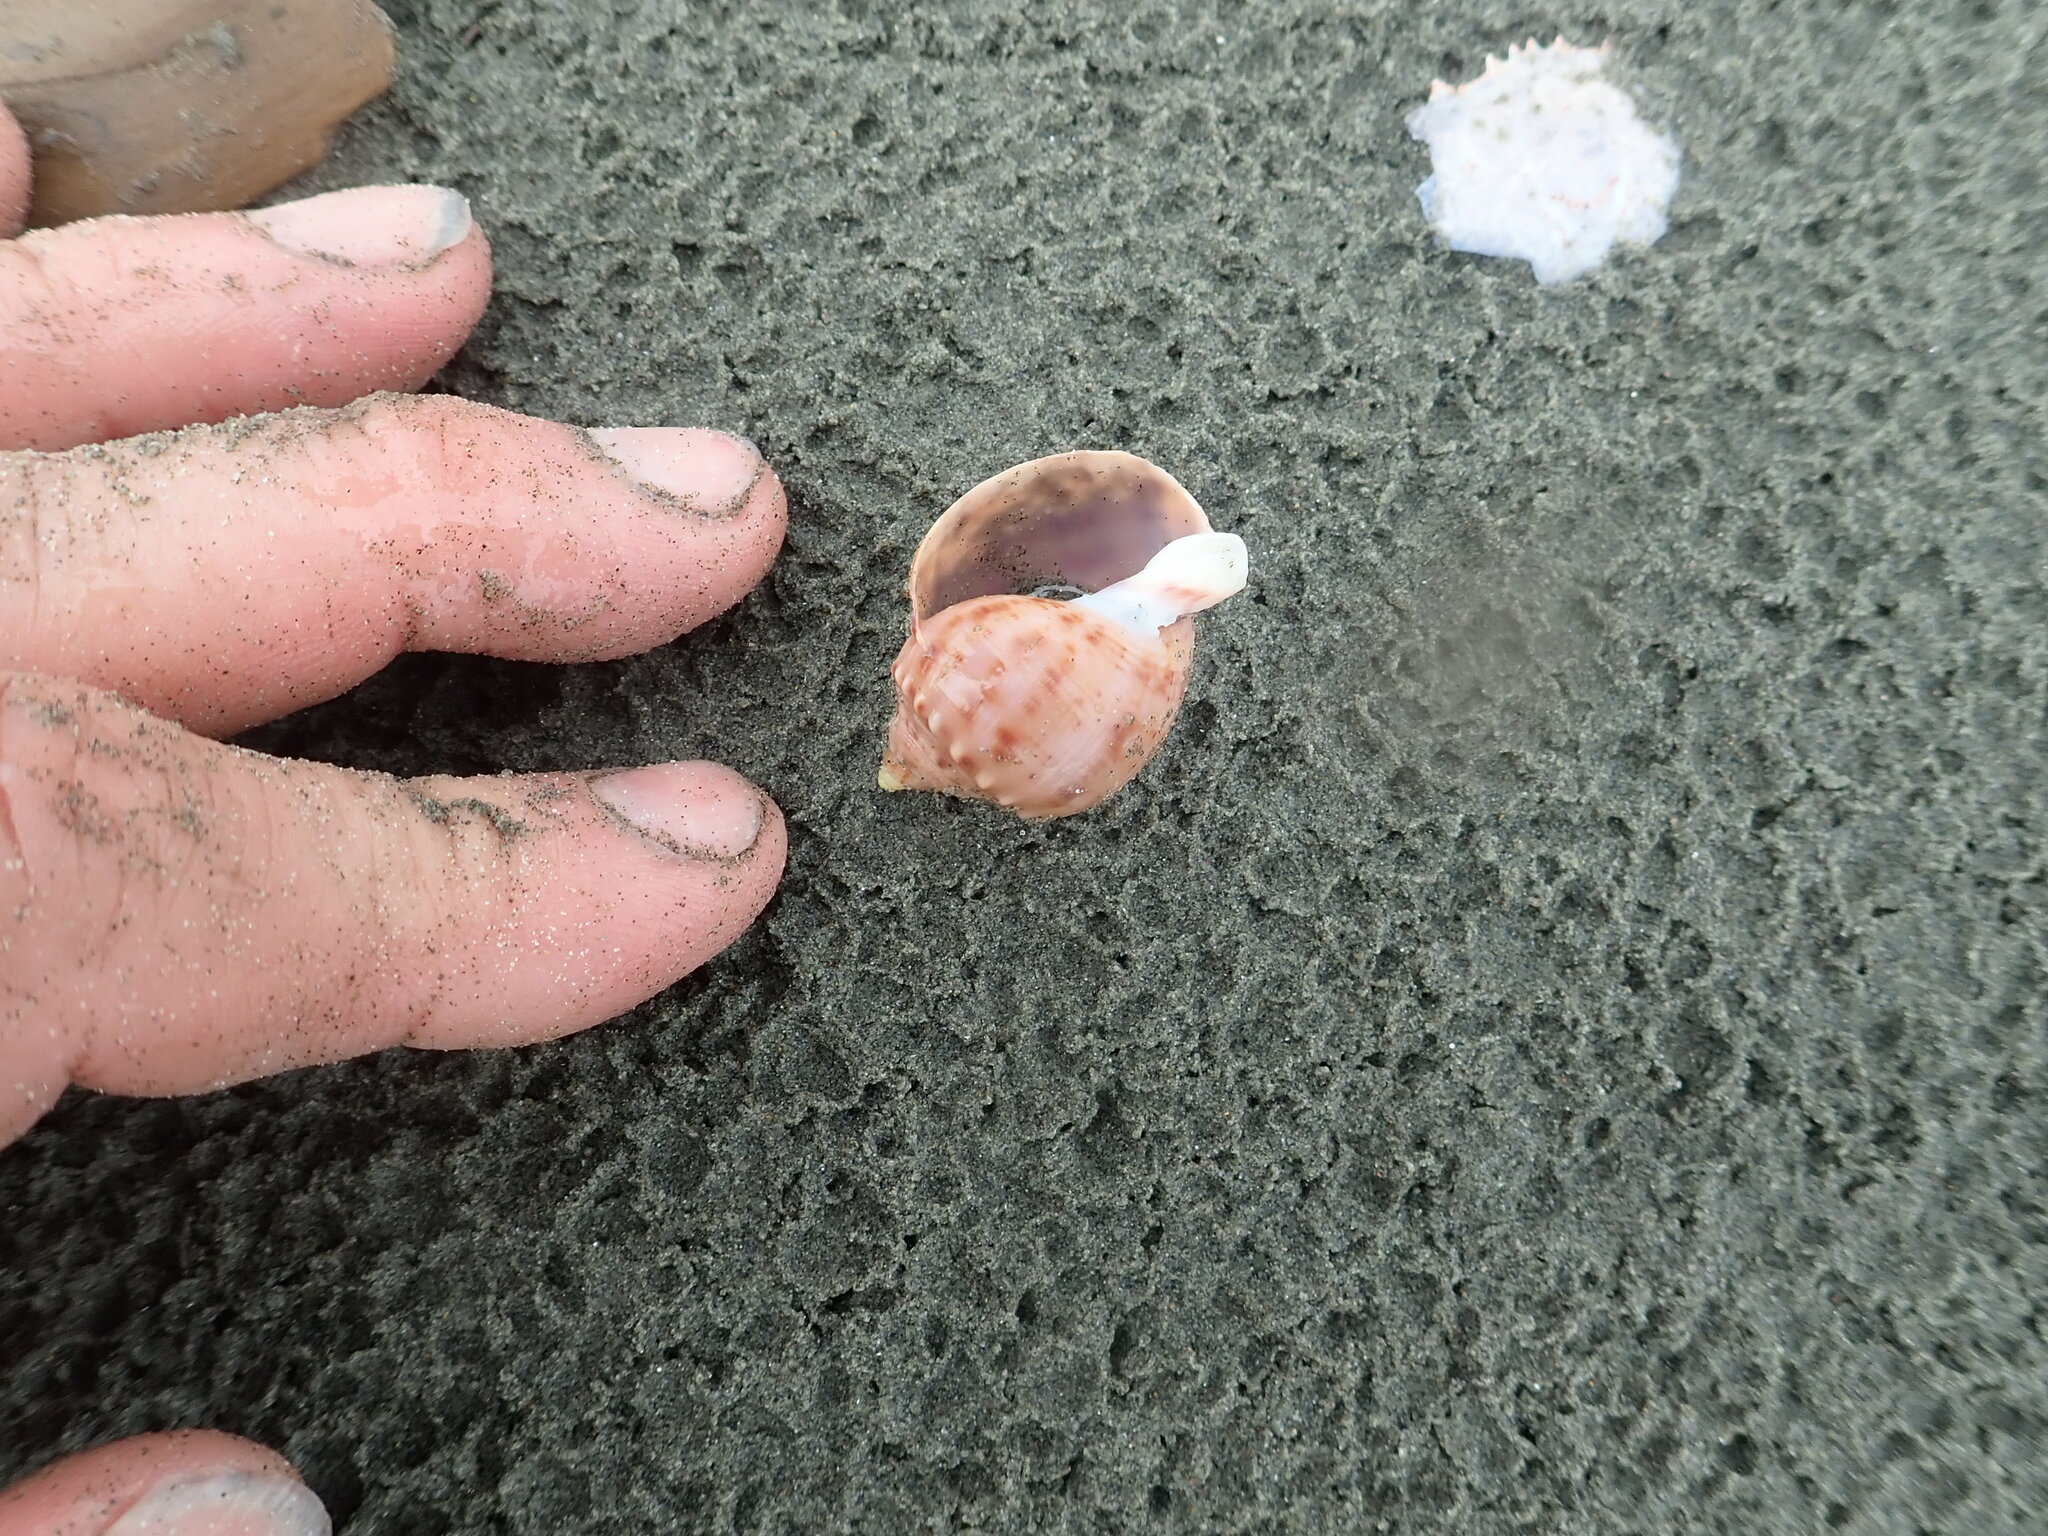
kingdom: Animalia
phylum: Mollusca
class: Gastropoda
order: Littorinimorpha
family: Cassidae
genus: Semicassis
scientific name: Semicassis pyrum
